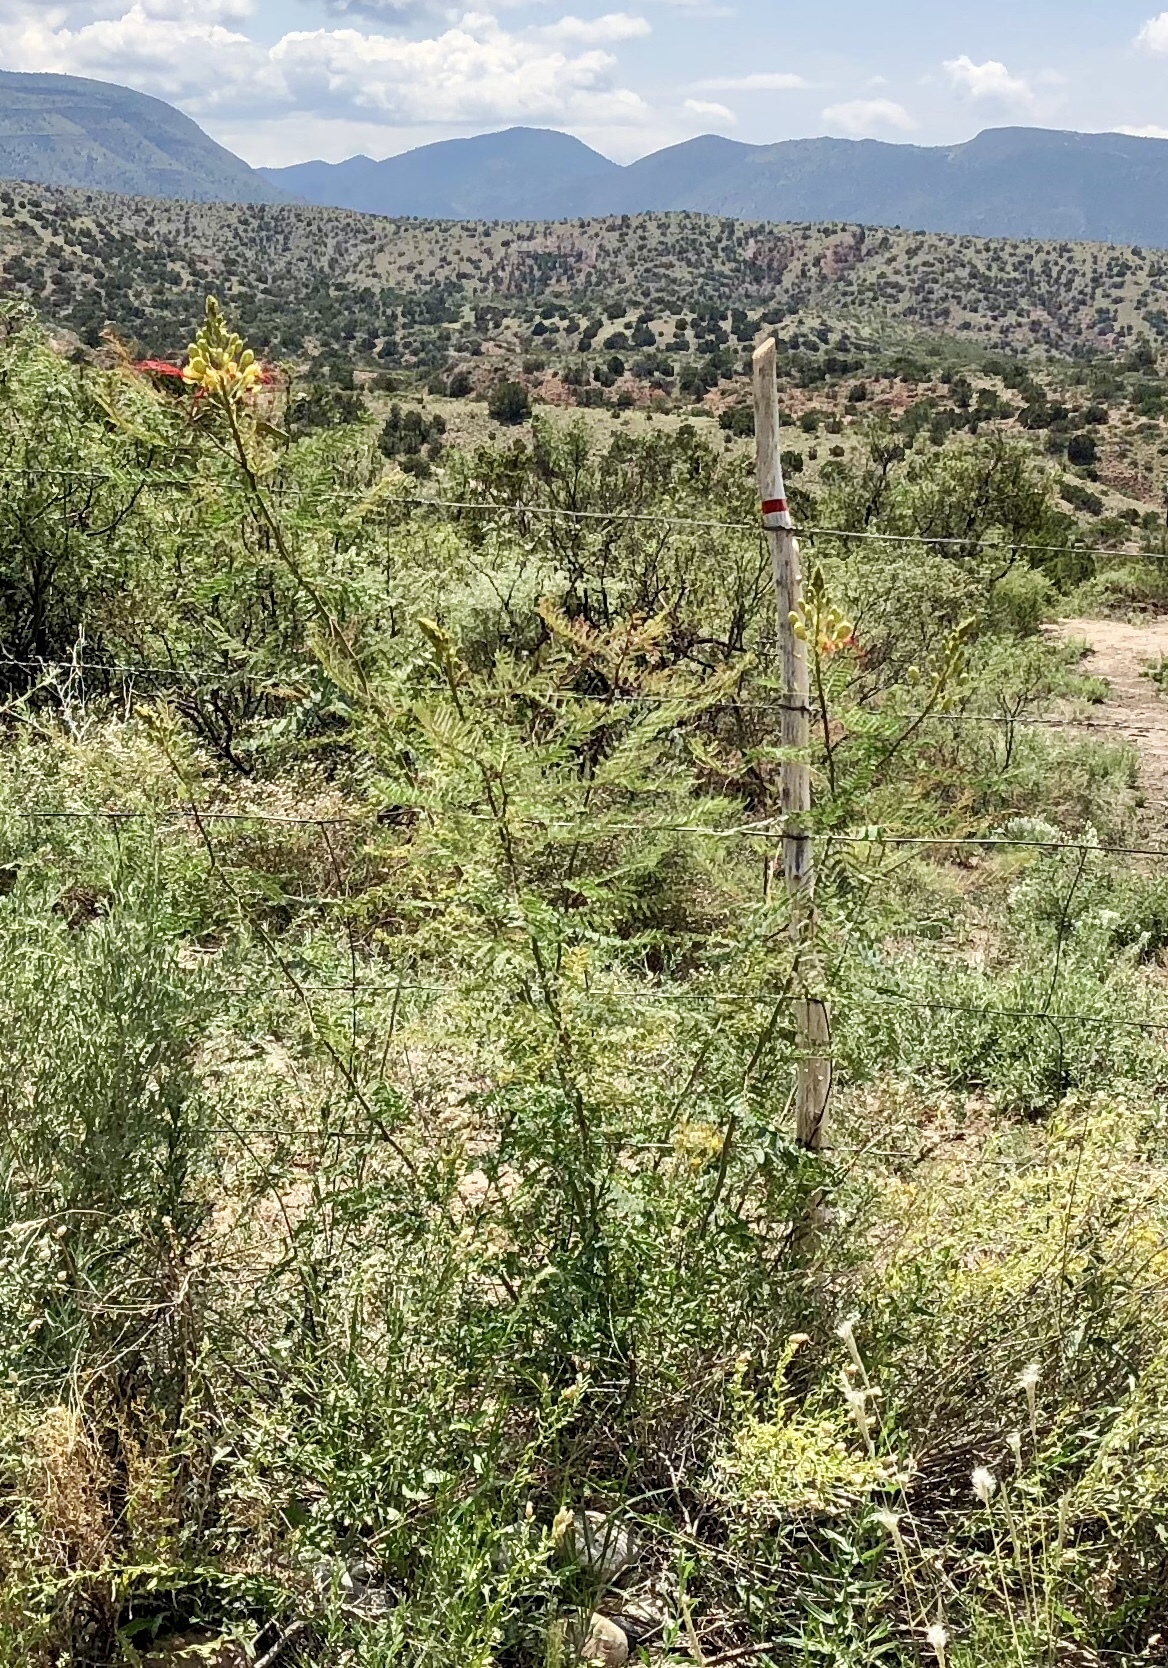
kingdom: Plantae
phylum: Tracheophyta
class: Magnoliopsida
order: Fabales
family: Fabaceae
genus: Erythrostemon
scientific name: Erythrostemon gilliesii
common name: Bird-of-paradise shrub
